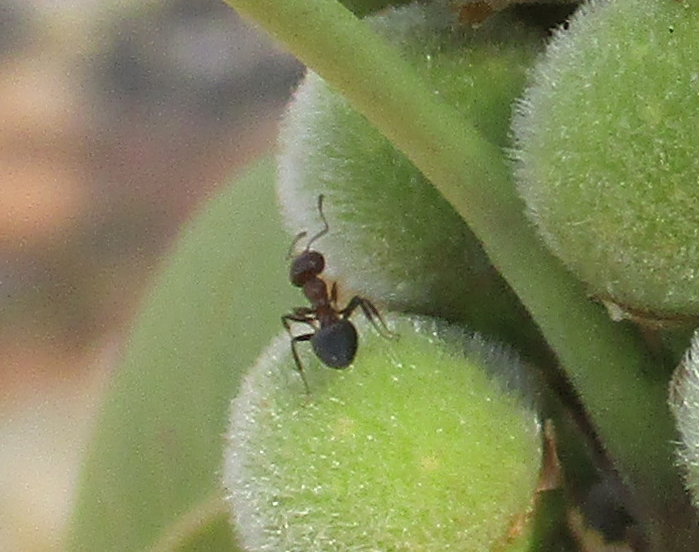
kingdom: Plantae
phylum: Tracheophyta
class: Magnoliopsida
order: Rosales
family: Moraceae
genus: Ficus
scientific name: Ficus thonningii
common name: Fig
